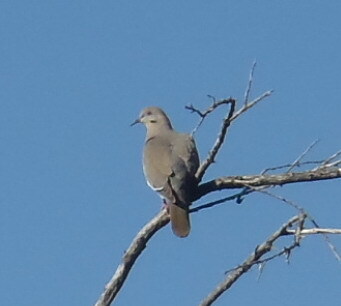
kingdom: Animalia
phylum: Chordata
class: Aves
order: Columbiformes
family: Columbidae
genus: Zenaida
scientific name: Zenaida asiatica
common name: White-winged dove
